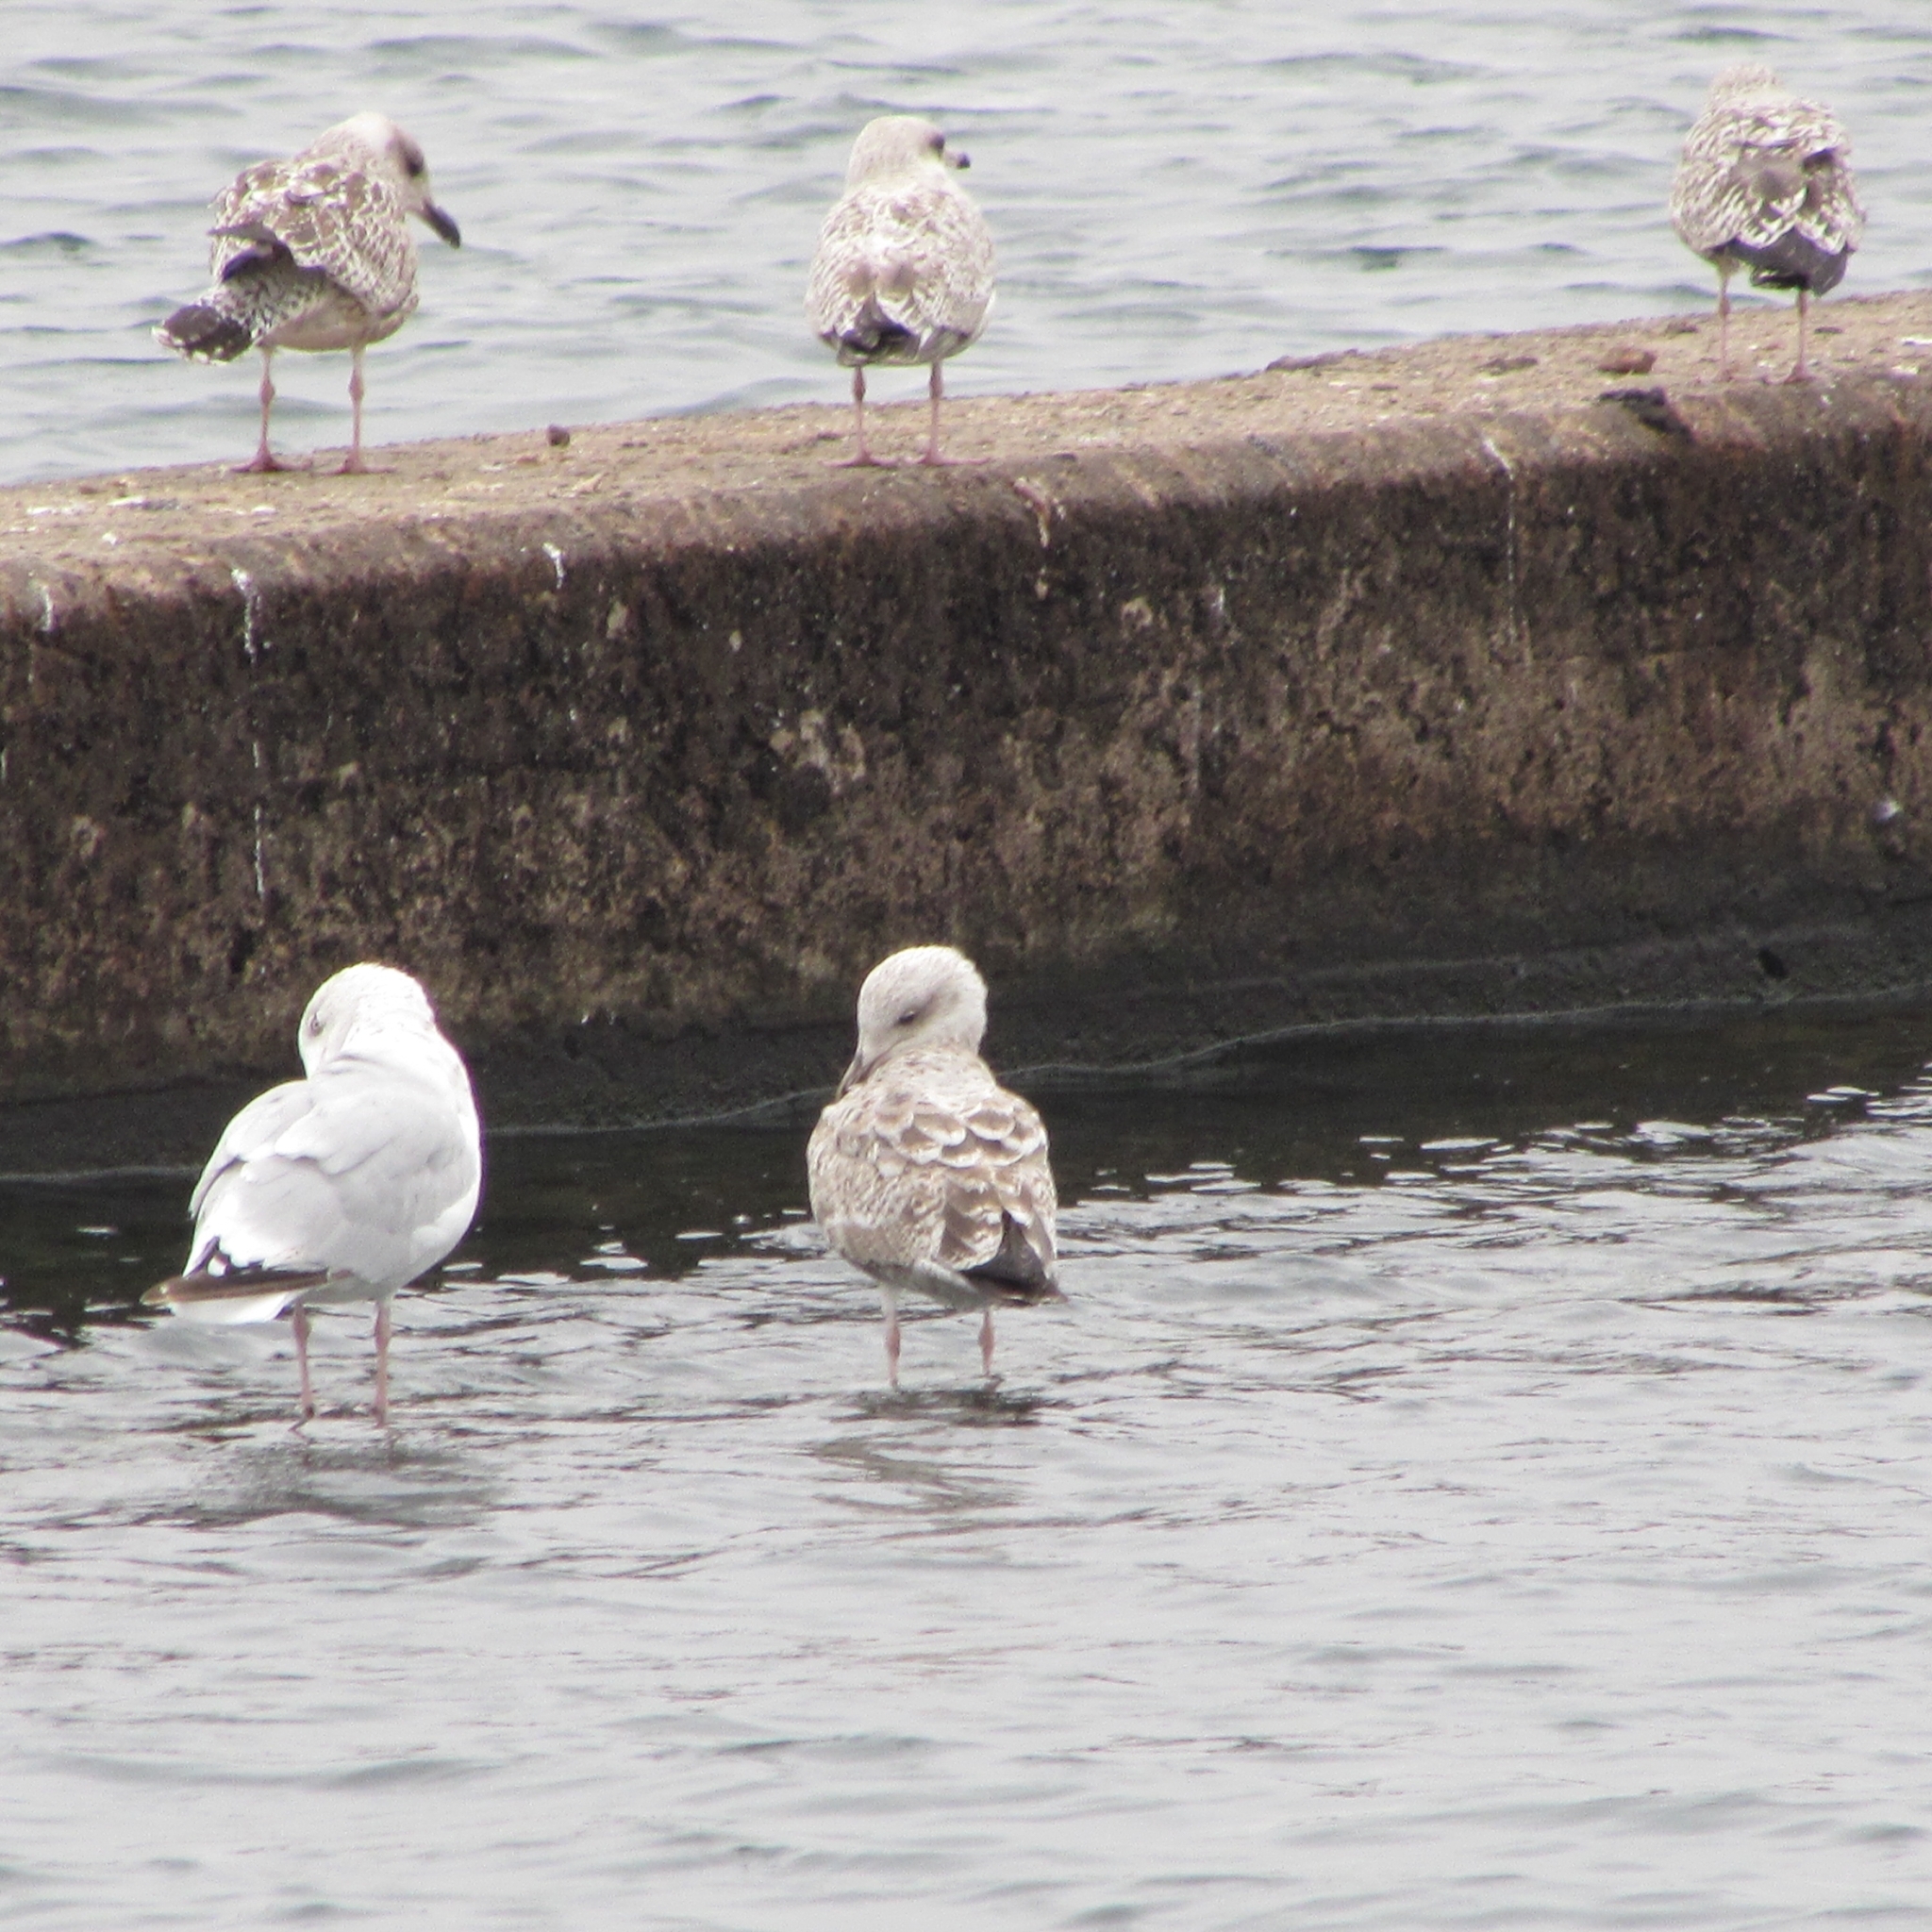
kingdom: Animalia
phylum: Chordata
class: Aves
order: Charadriiformes
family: Laridae
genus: Larus
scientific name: Larus argentatus
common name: Herring gull
